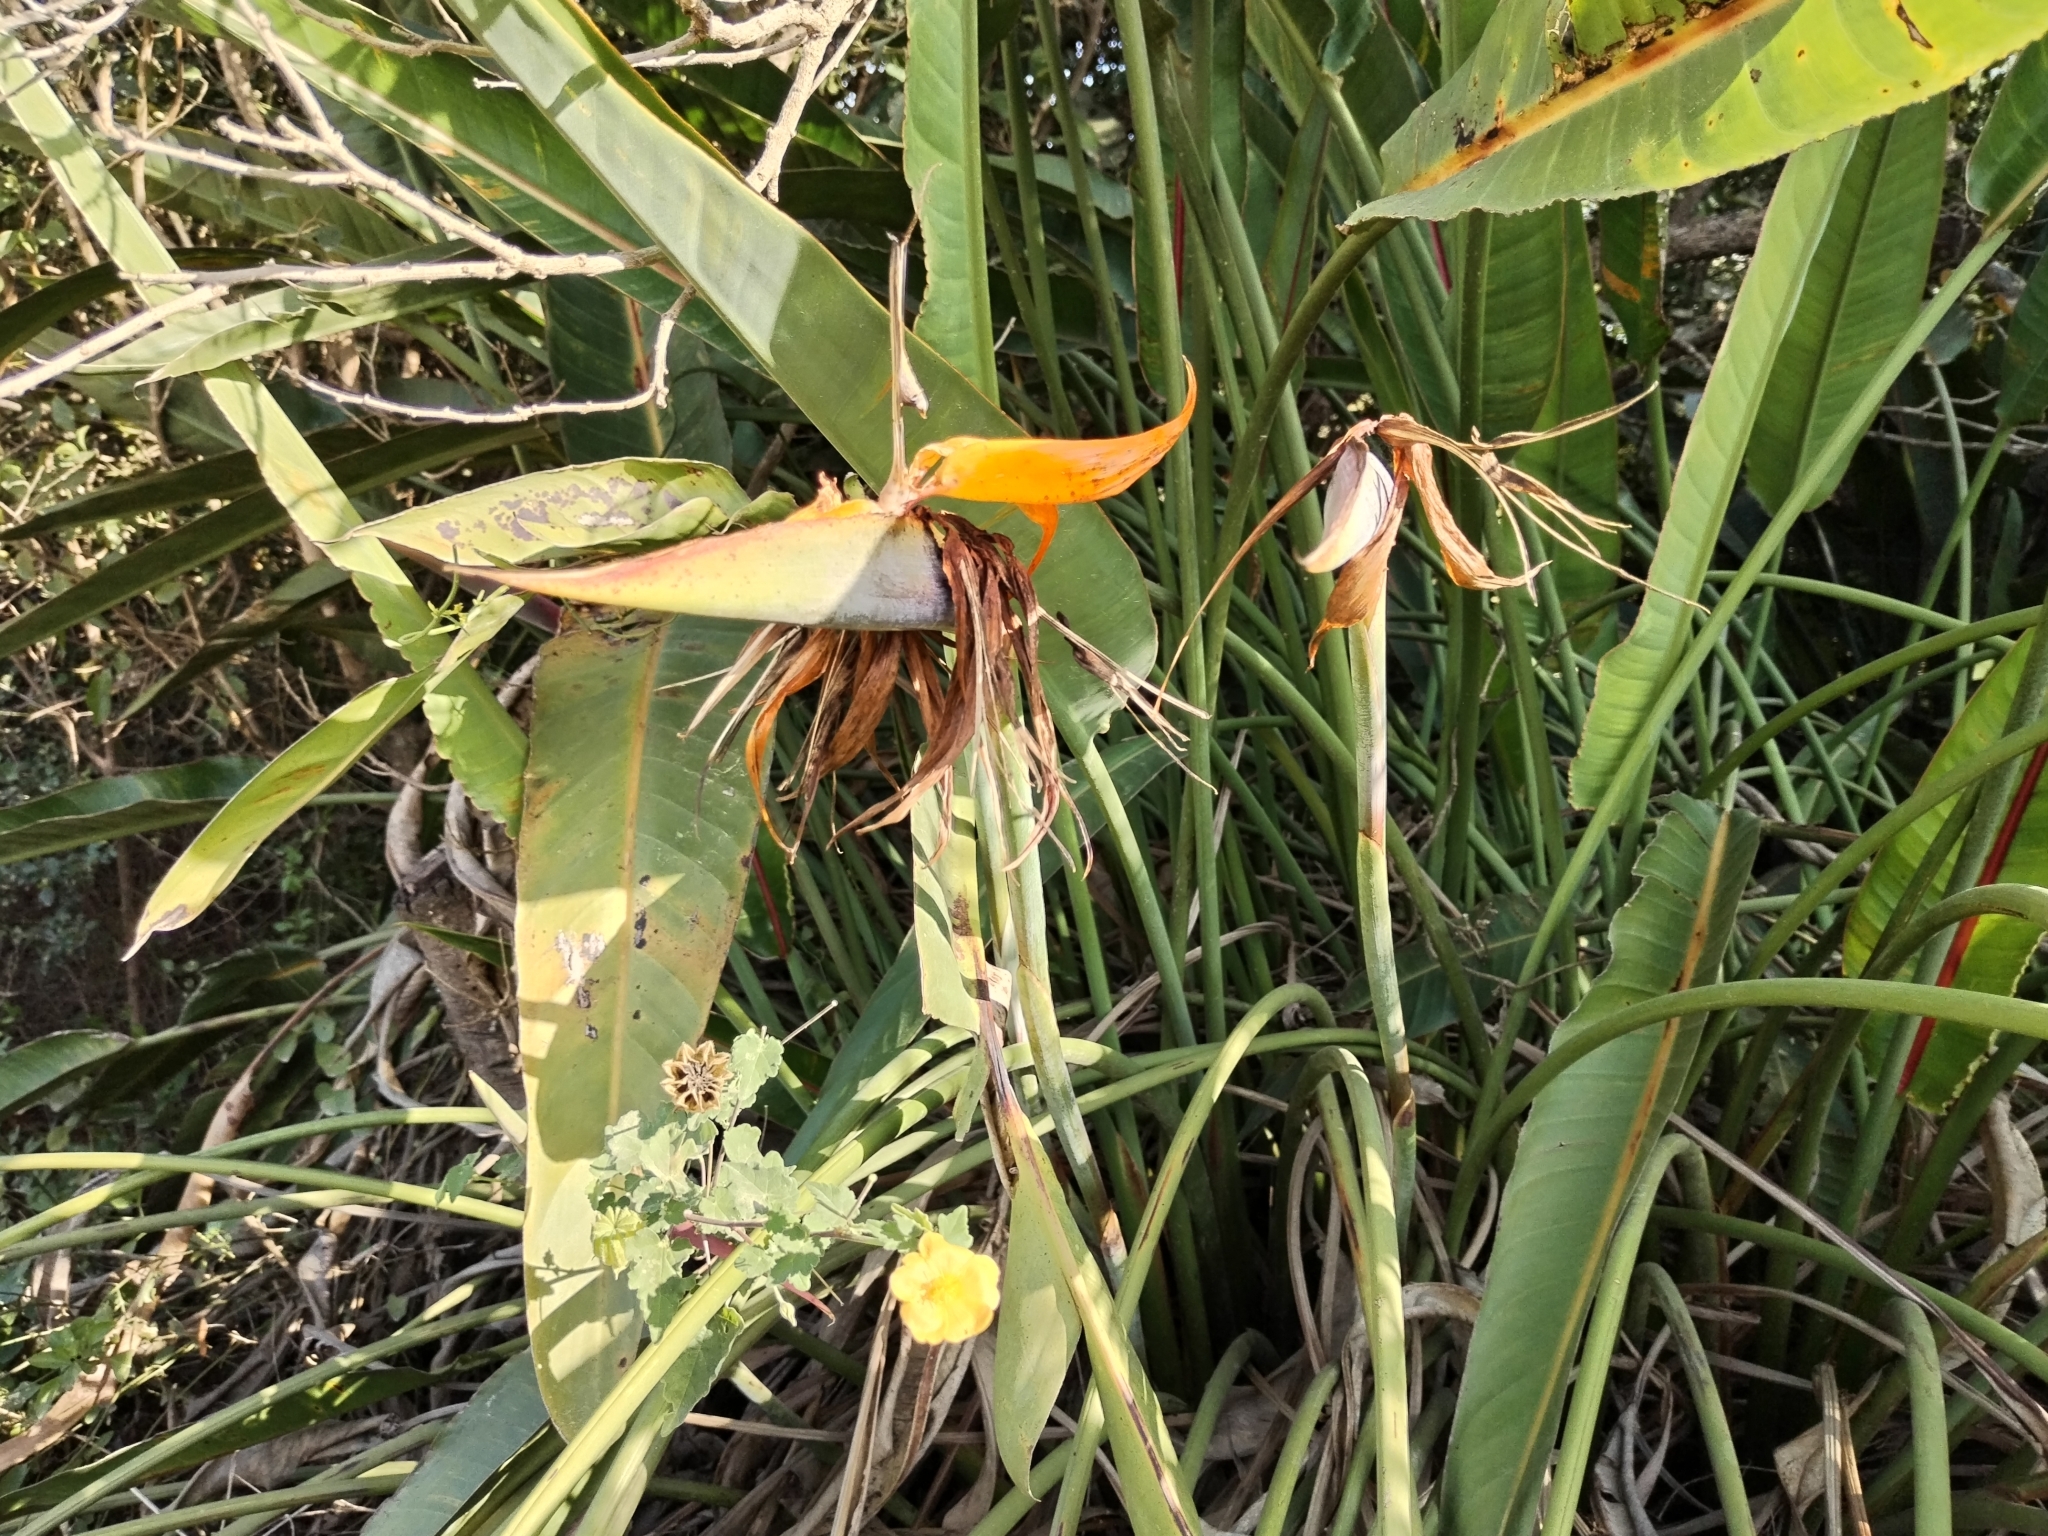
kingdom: Plantae
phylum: Tracheophyta
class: Liliopsida
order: Zingiberales
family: Strelitziaceae
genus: Strelitzia
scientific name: Strelitzia reginae
